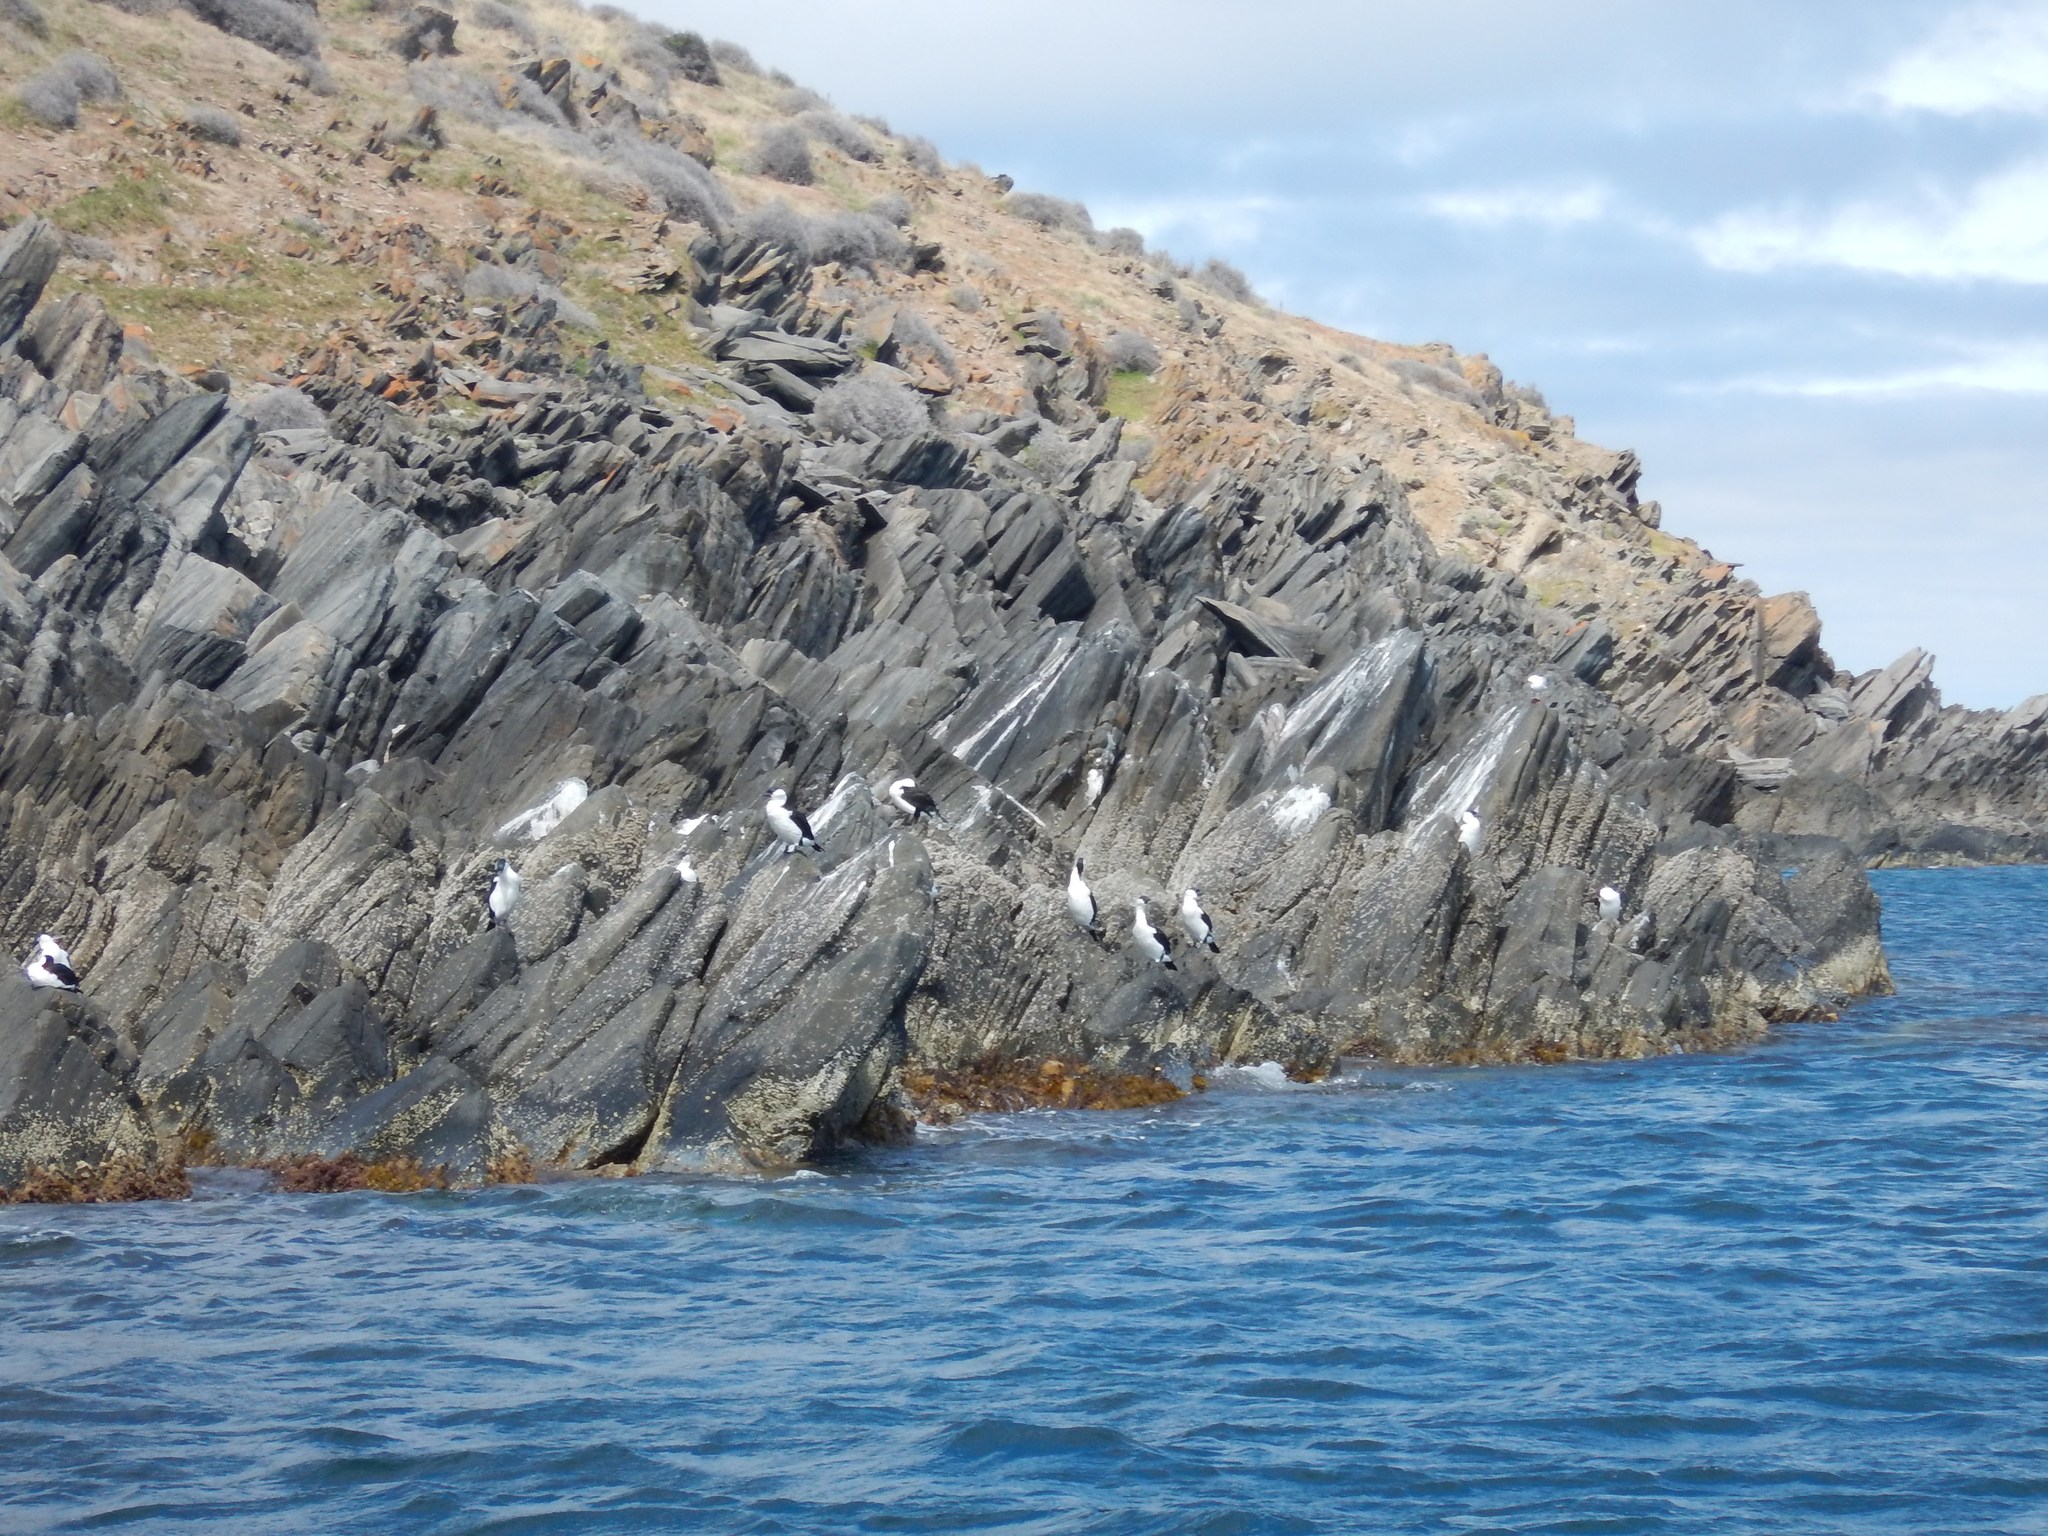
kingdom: Animalia
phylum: Chordata
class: Aves
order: Suliformes
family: Phalacrocoracidae
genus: Phalacrocorax
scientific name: Phalacrocorax fuscescens
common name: Black-faced cormorant
